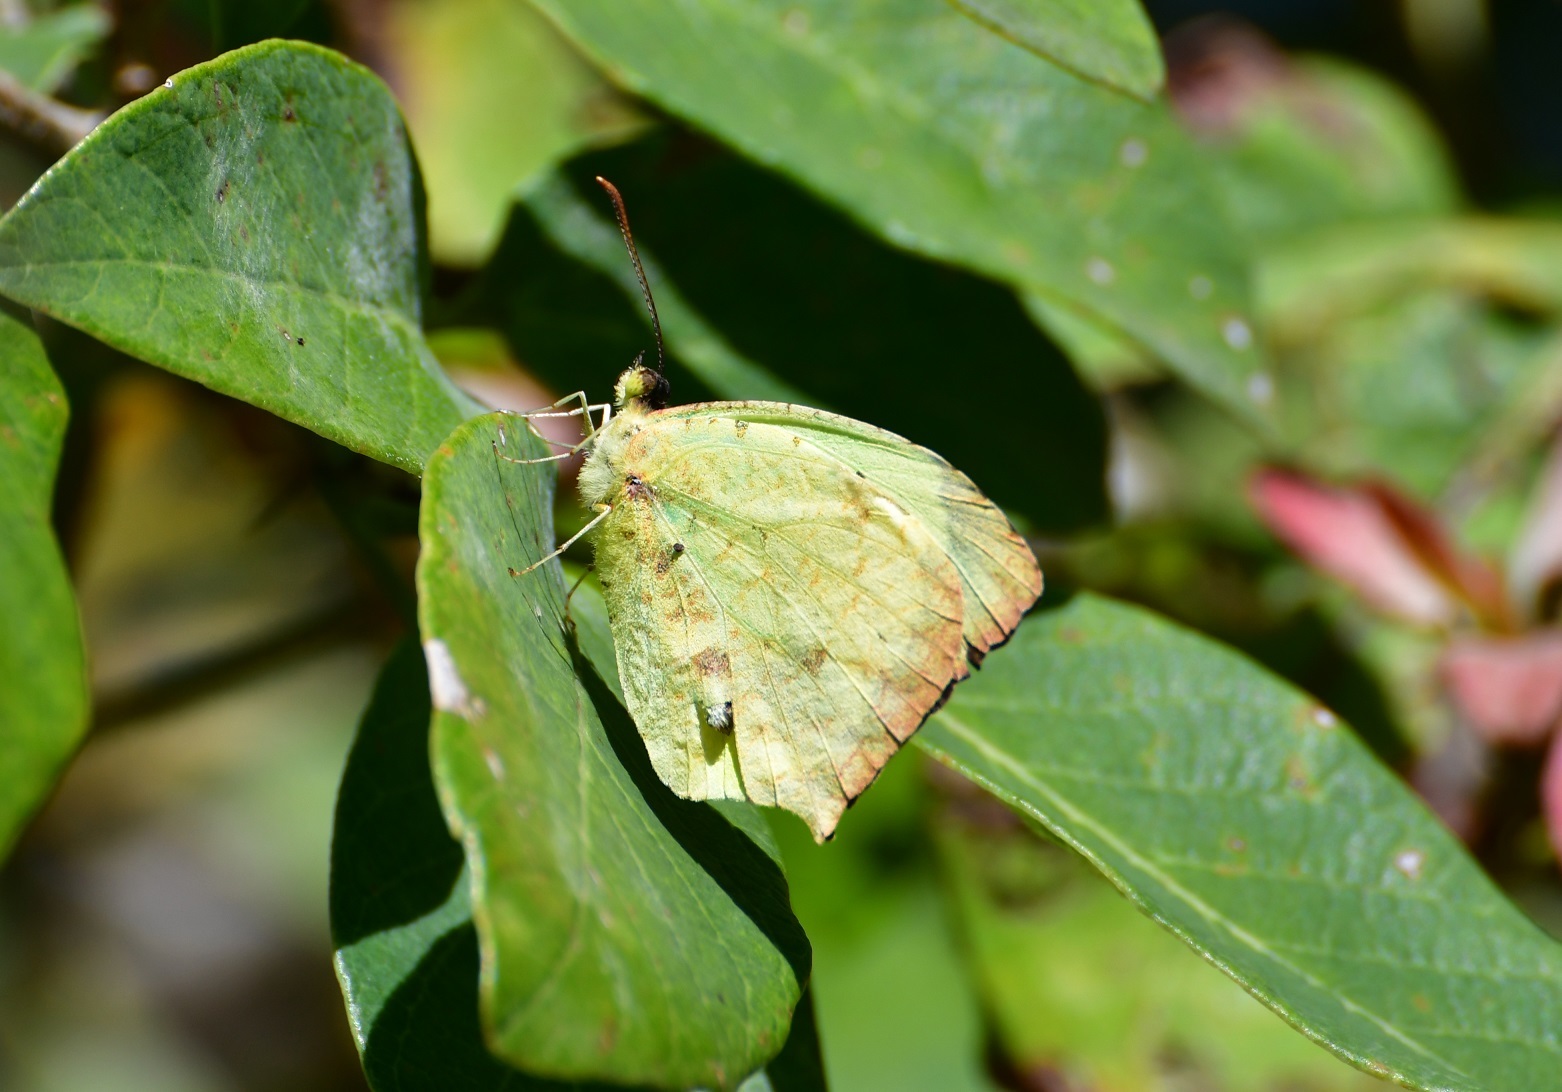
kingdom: Animalia
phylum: Arthropoda
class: Insecta
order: Lepidoptera
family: Pieridae
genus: Abaeis
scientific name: Abaeis salome
